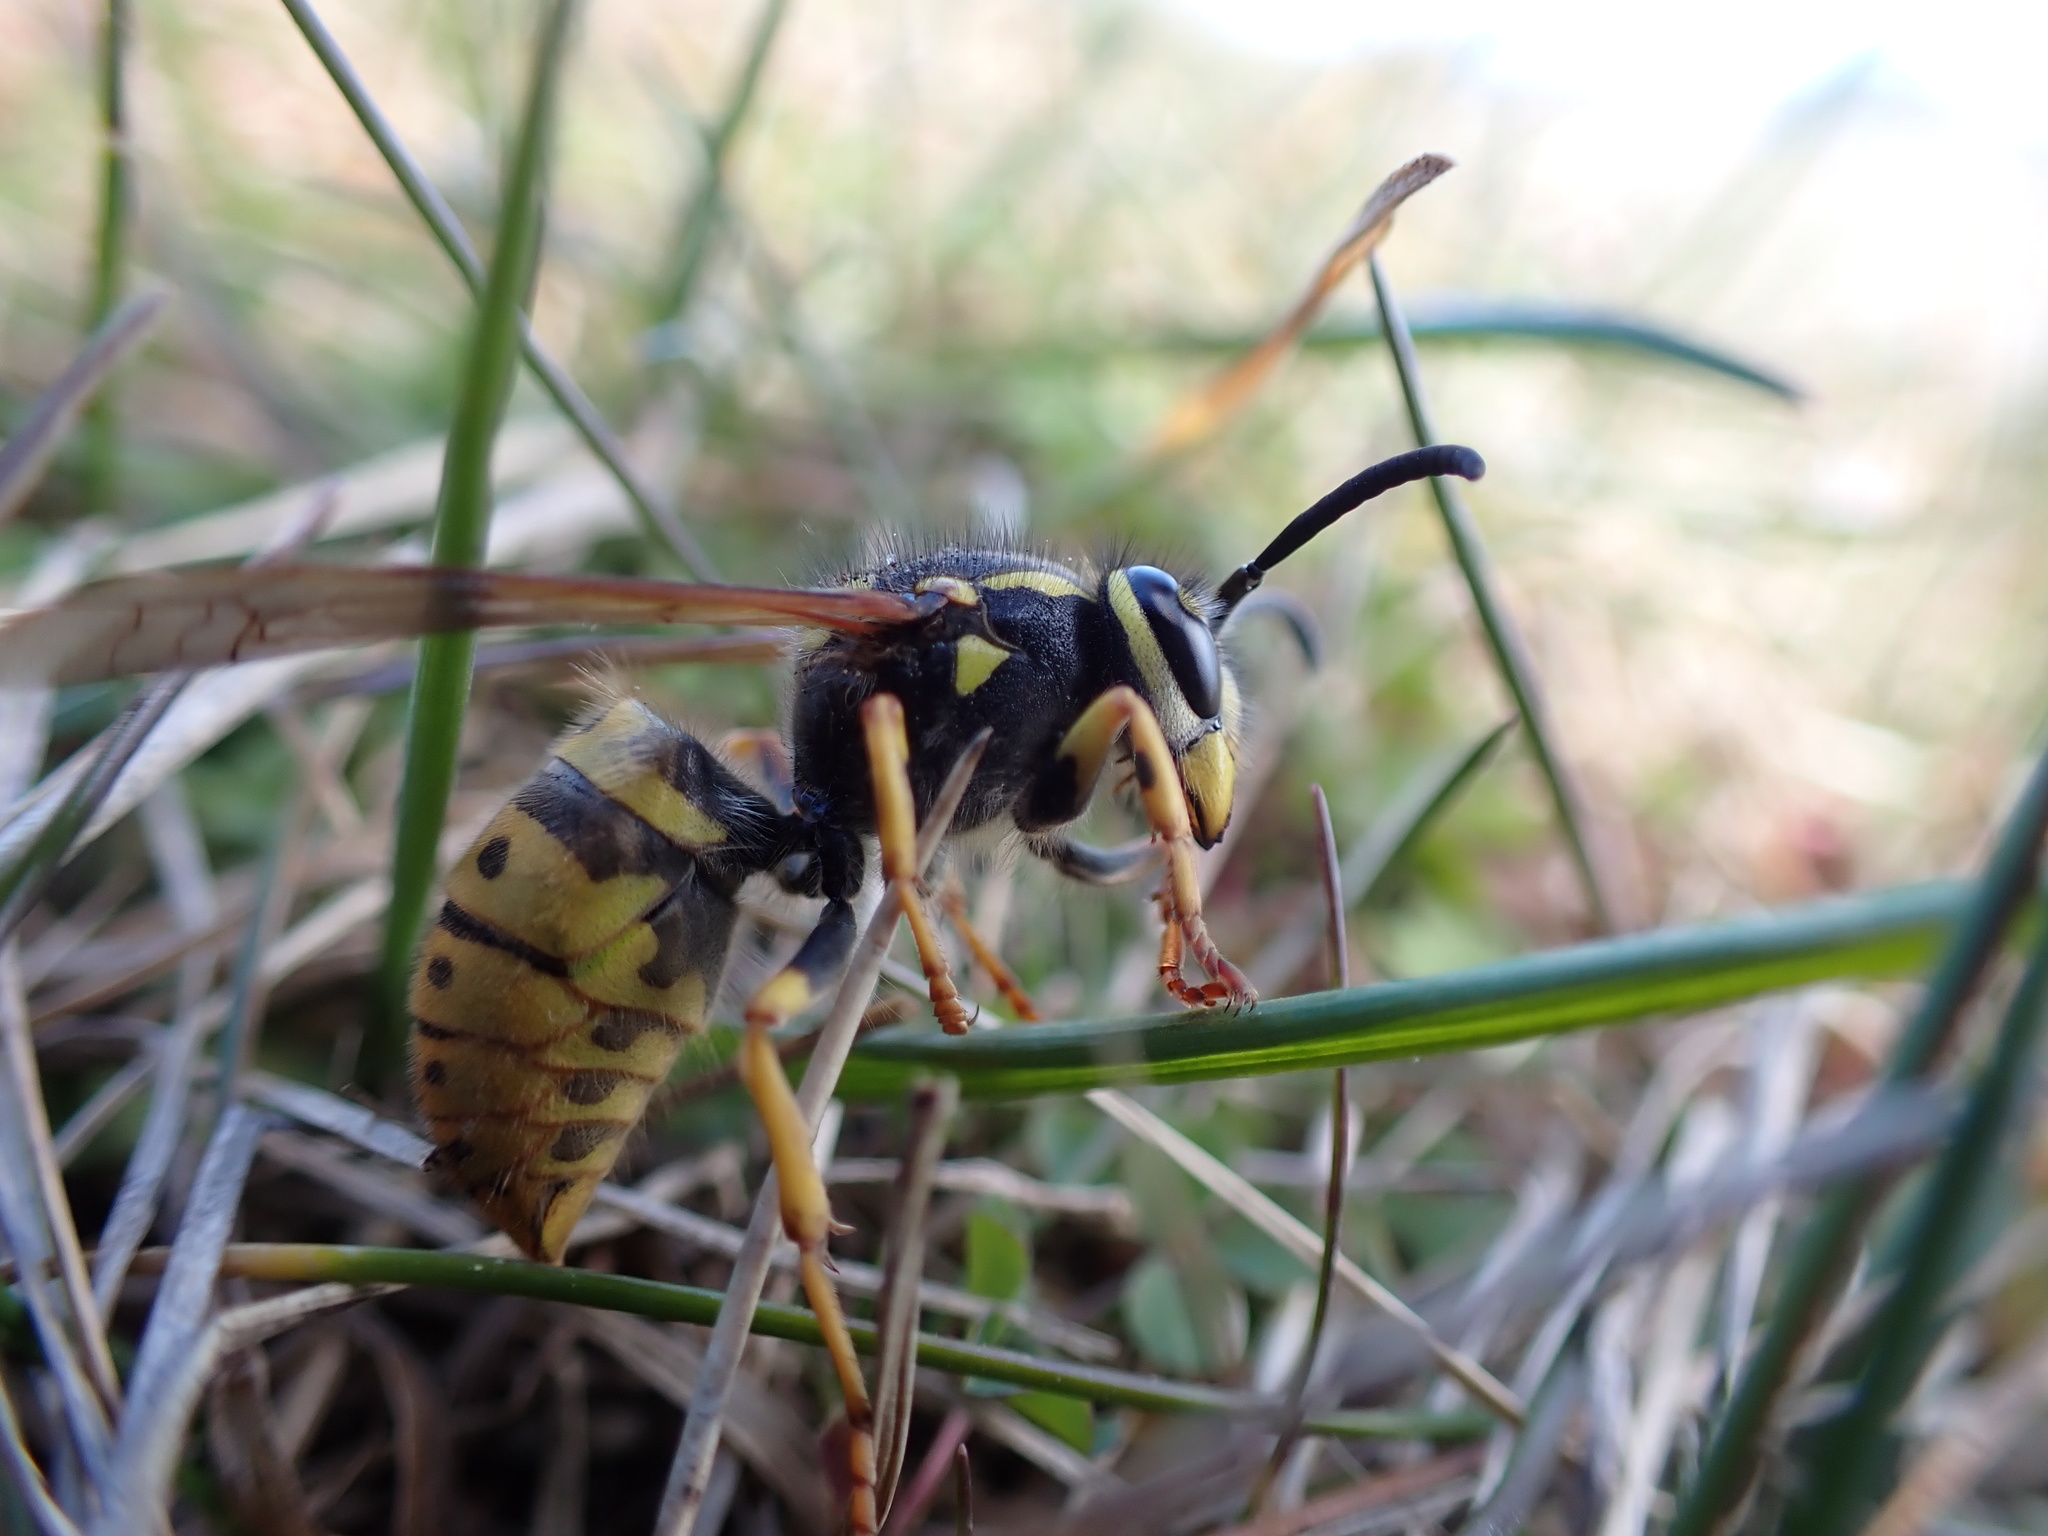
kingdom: Animalia
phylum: Arthropoda
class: Insecta
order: Hymenoptera
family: Vespidae
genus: Vespula
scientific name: Vespula germanica
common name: German wasp
